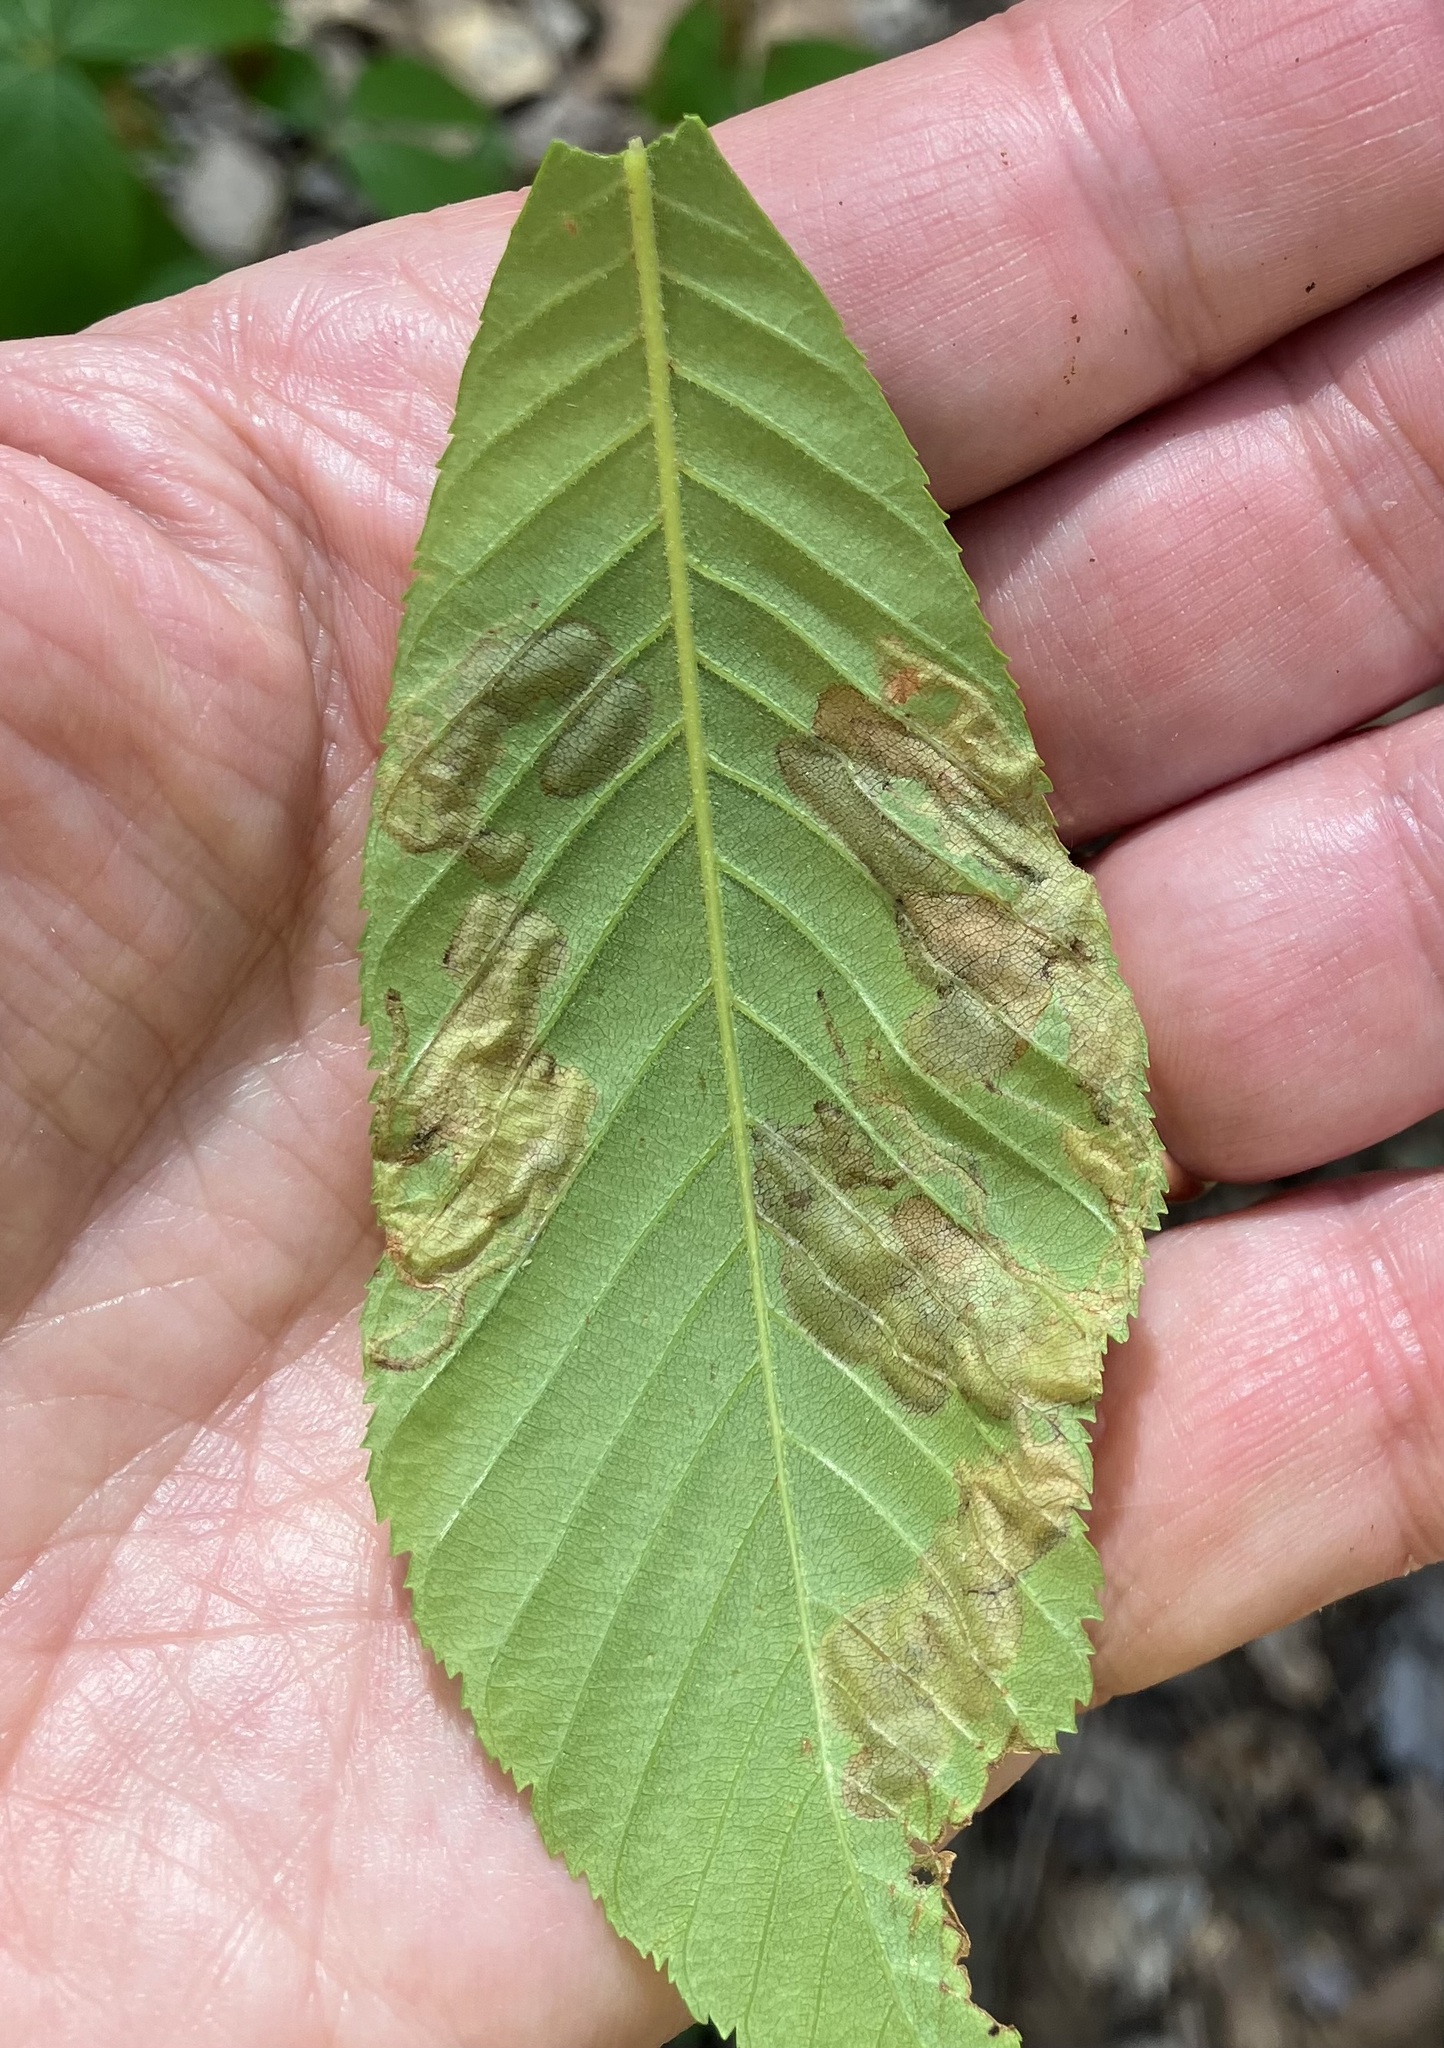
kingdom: Animalia
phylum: Arthropoda
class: Insecta
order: Diptera
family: Agromyzidae
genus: Phytomyza
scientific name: Phytomyza aesculi
